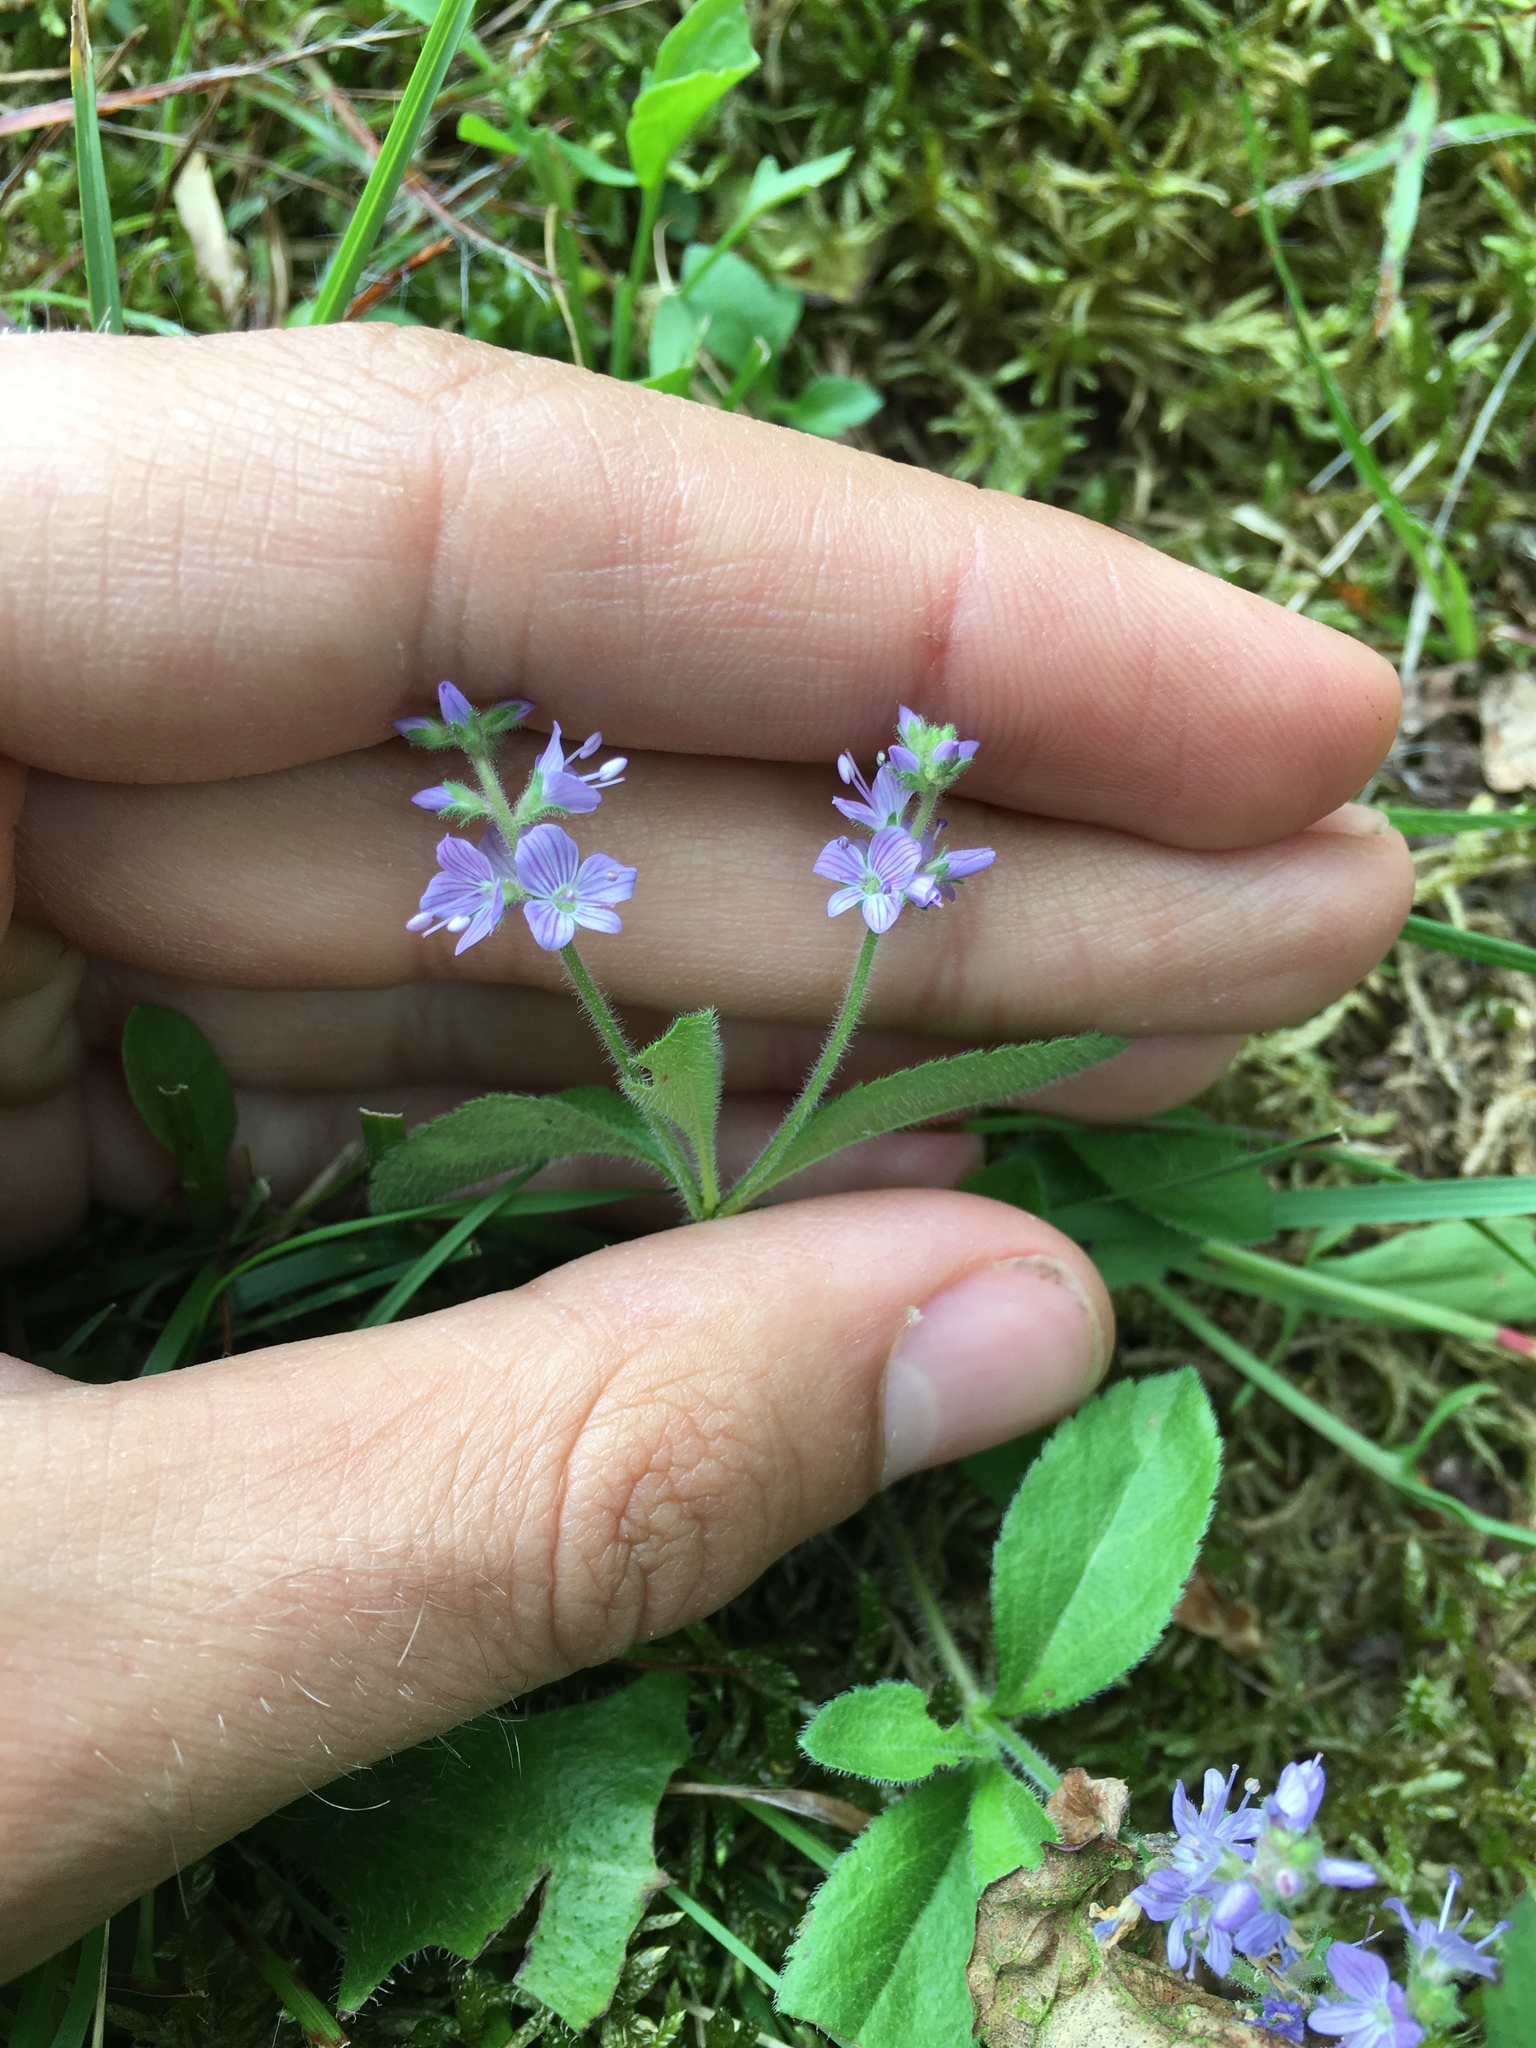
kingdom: Plantae
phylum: Tracheophyta
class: Magnoliopsida
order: Lamiales
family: Plantaginaceae
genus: Veronica
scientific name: Veronica officinalis
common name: Common speedwell
